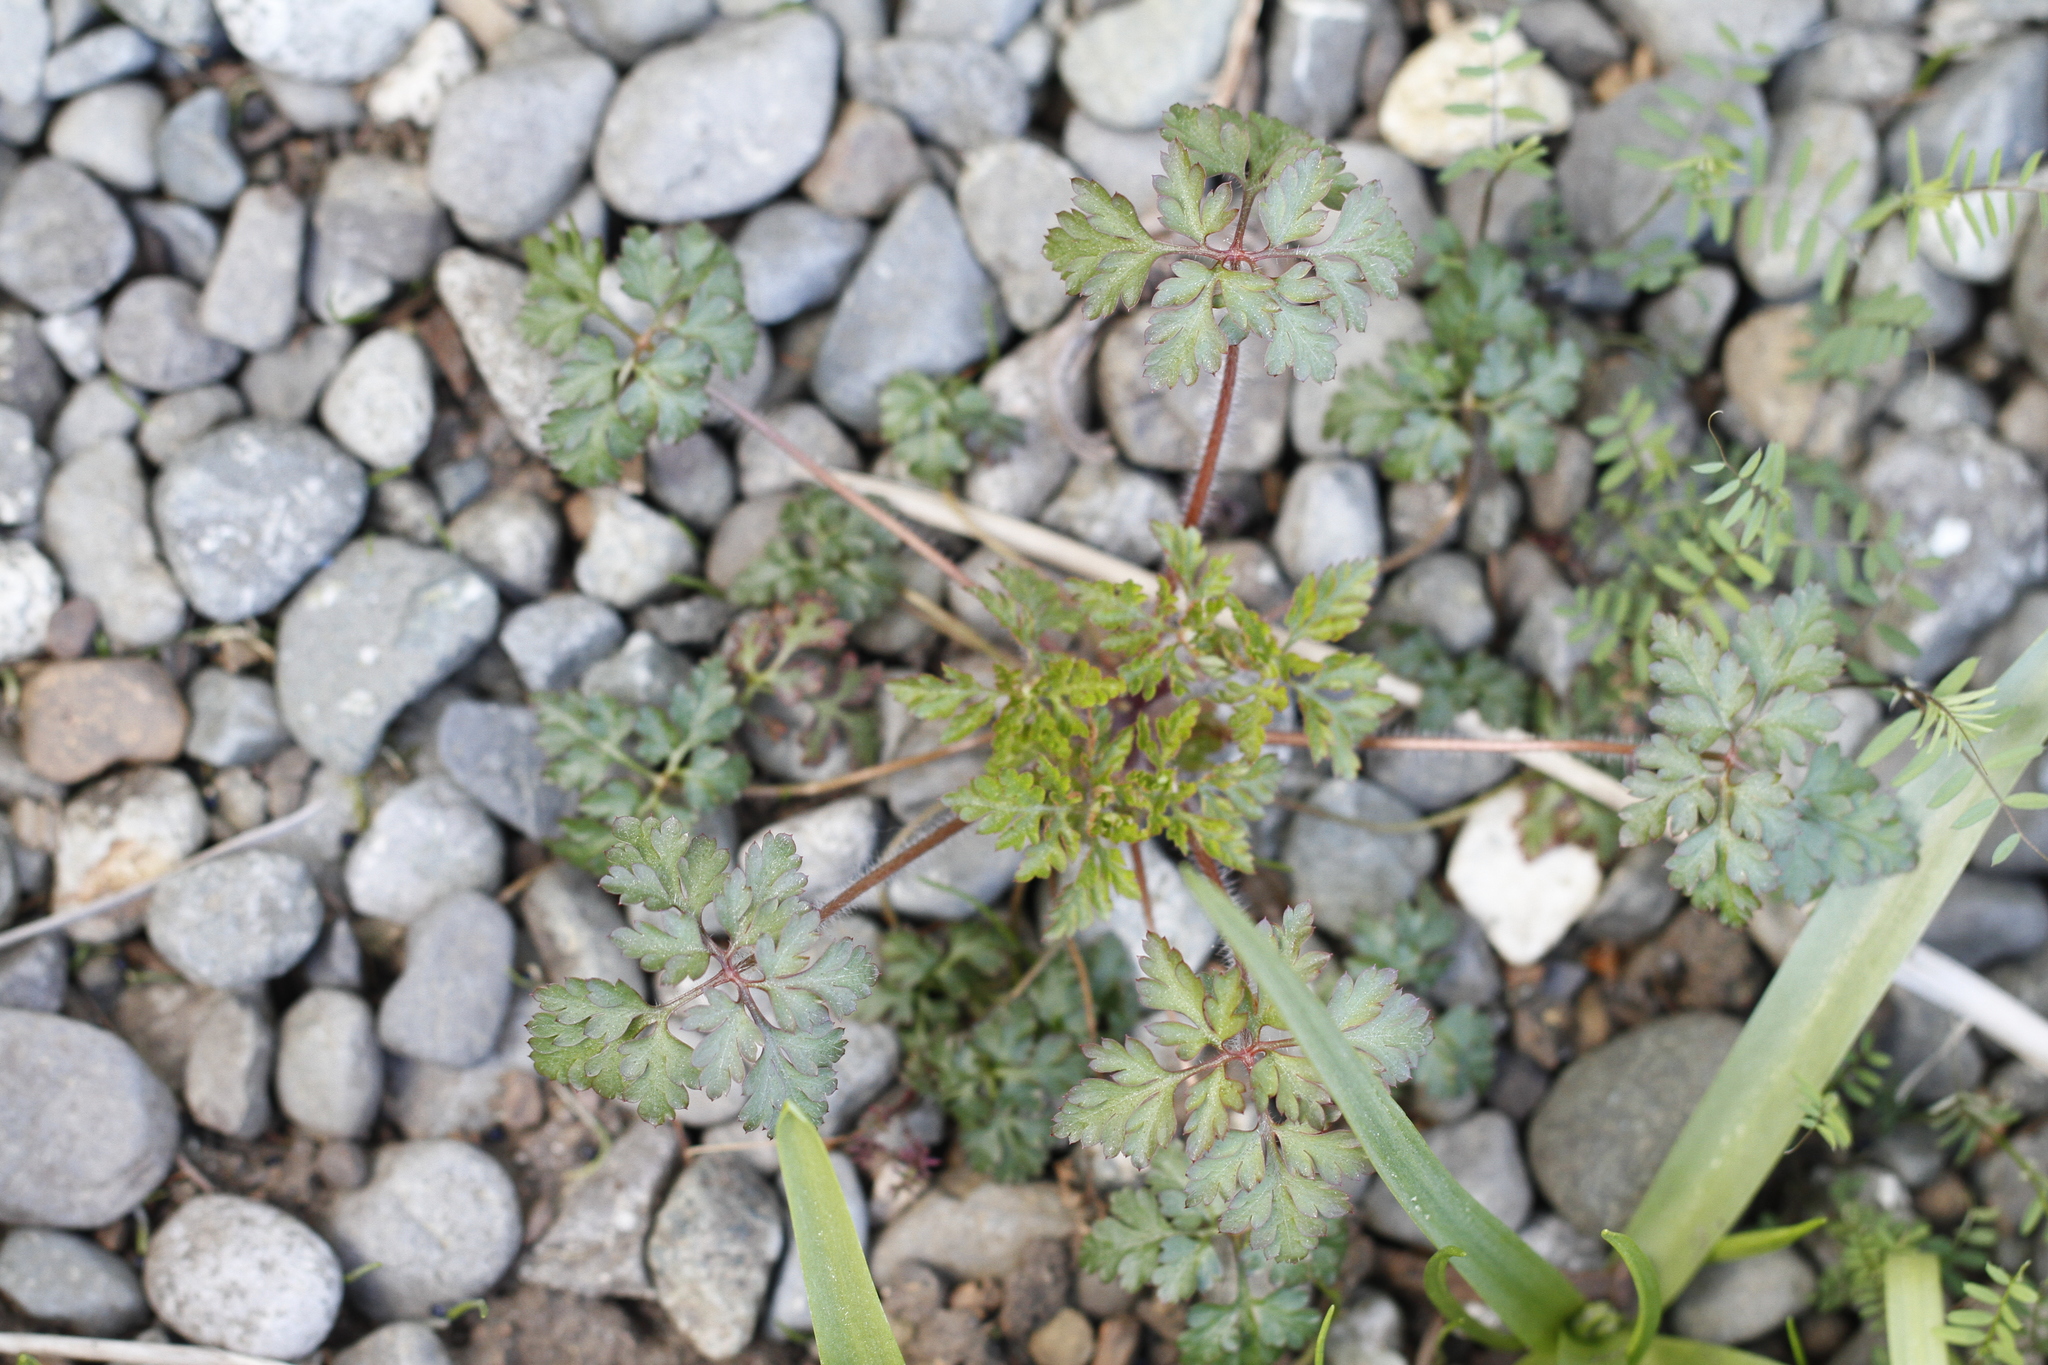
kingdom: Plantae
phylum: Tracheophyta
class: Magnoliopsida
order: Geraniales
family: Geraniaceae
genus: Geranium
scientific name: Geranium robertianum
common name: Herb-robert
